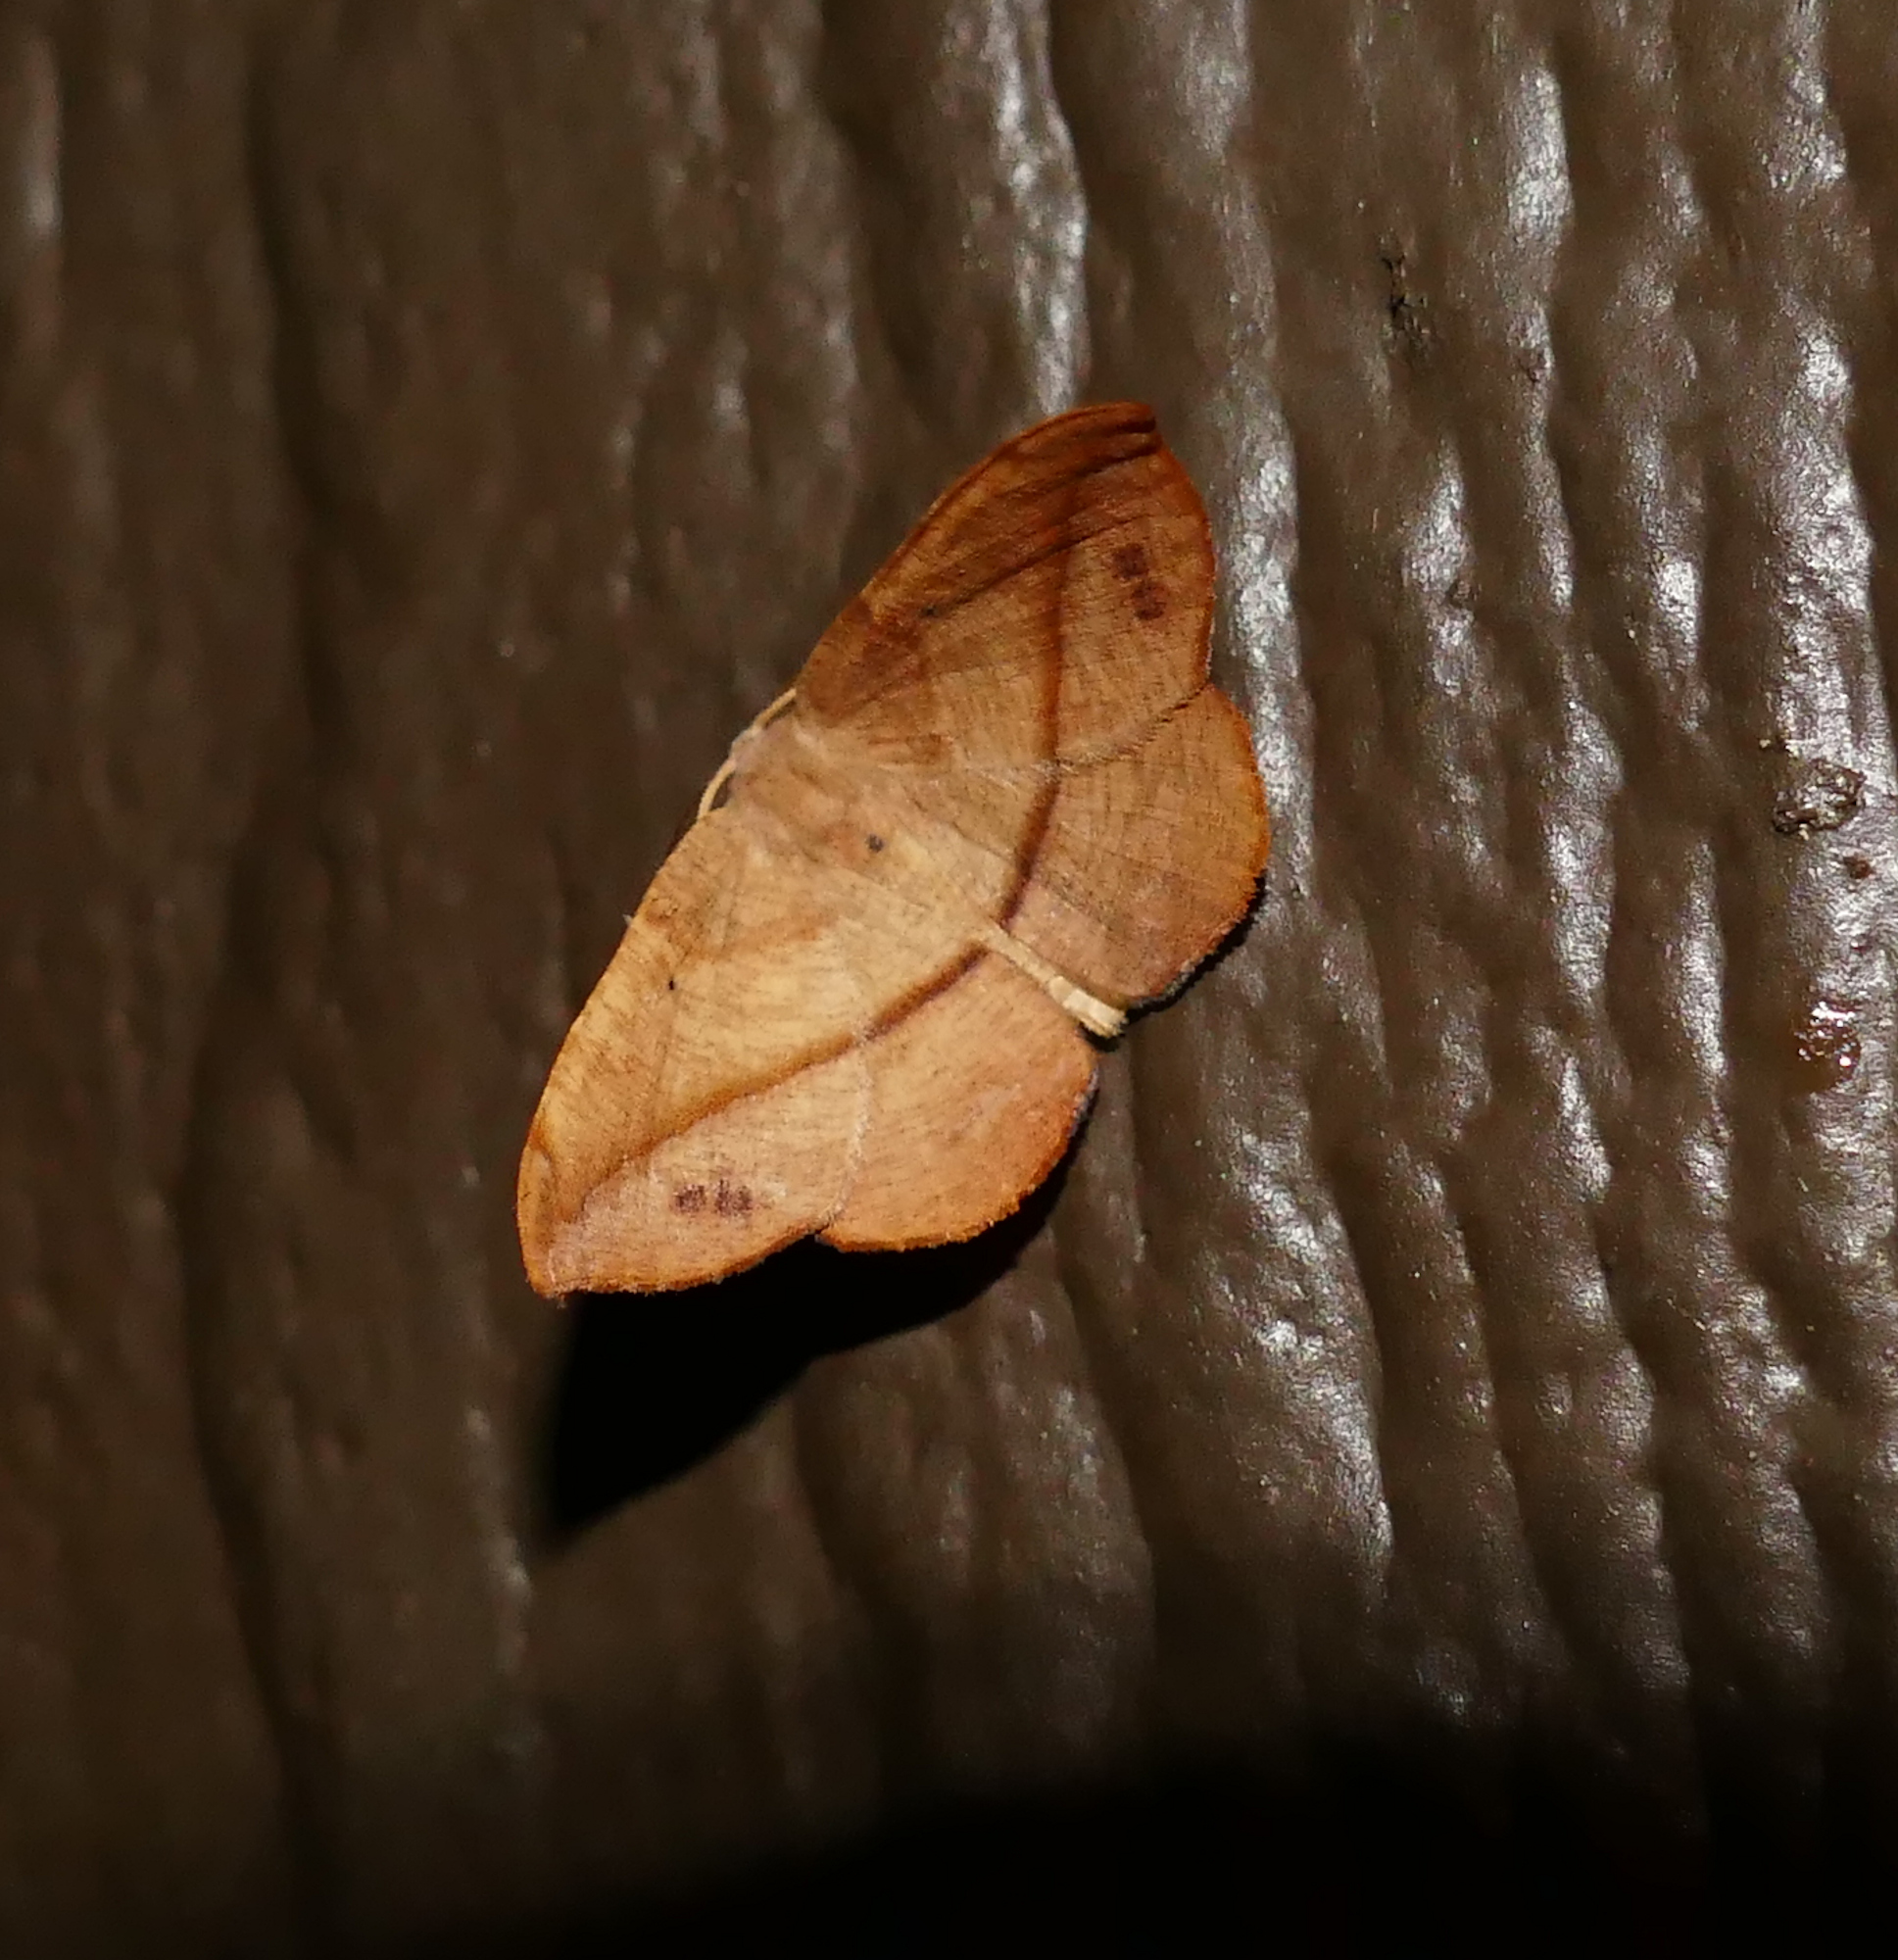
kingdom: Animalia
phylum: Arthropoda
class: Insecta
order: Lepidoptera
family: Geometridae
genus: Patalene
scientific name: Patalene olyzonaria
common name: Juniper geometer moth
